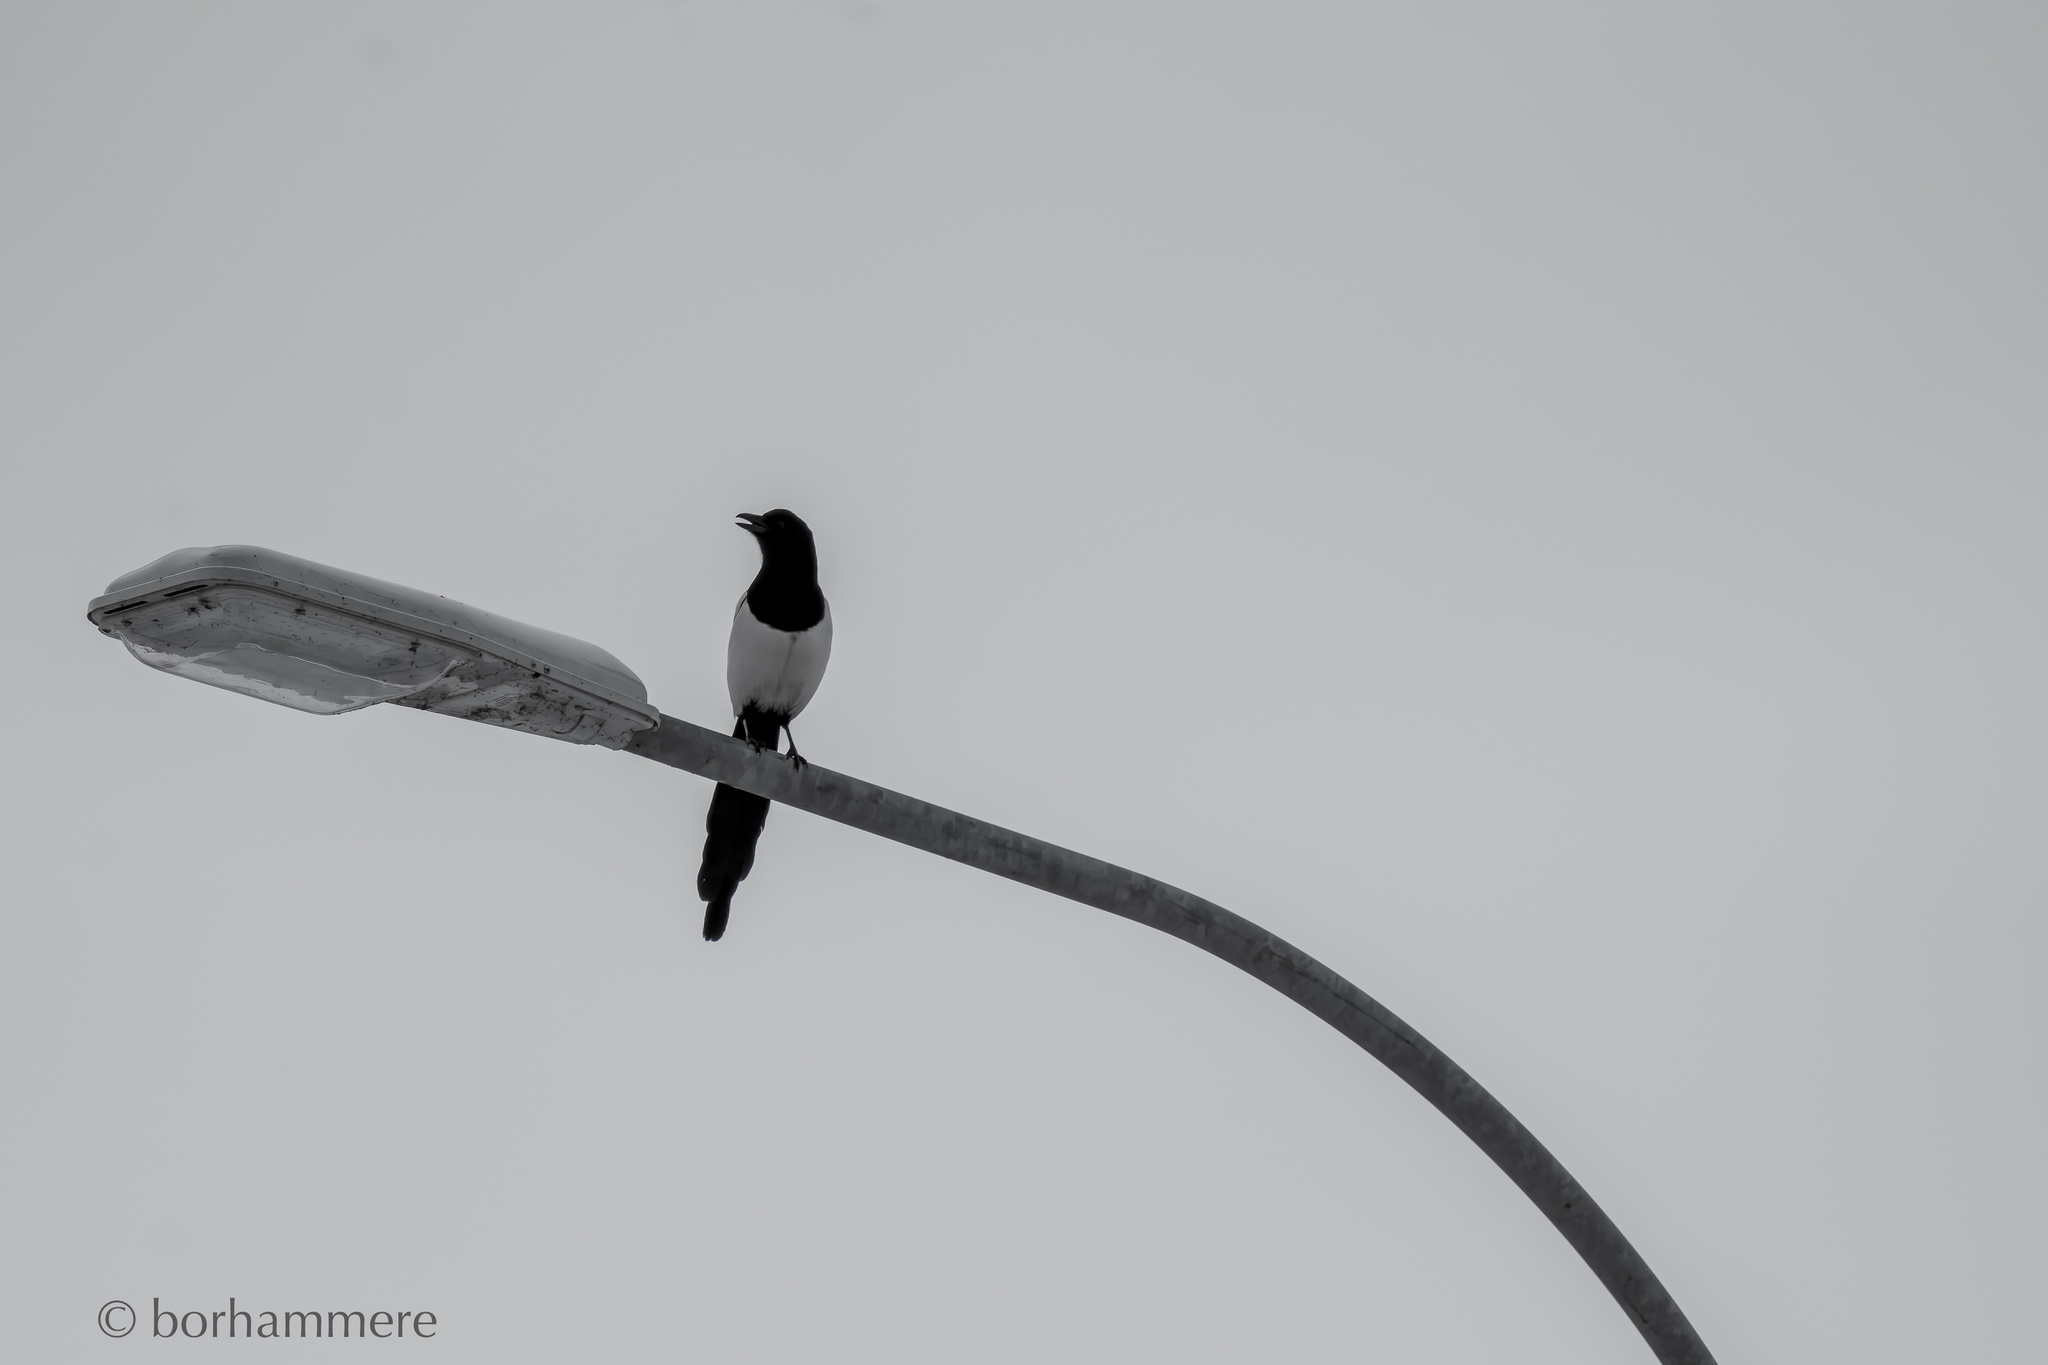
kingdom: Animalia
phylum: Chordata
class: Aves
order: Passeriformes
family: Corvidae
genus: Pica
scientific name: Pica pica
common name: Eurasian magpie
